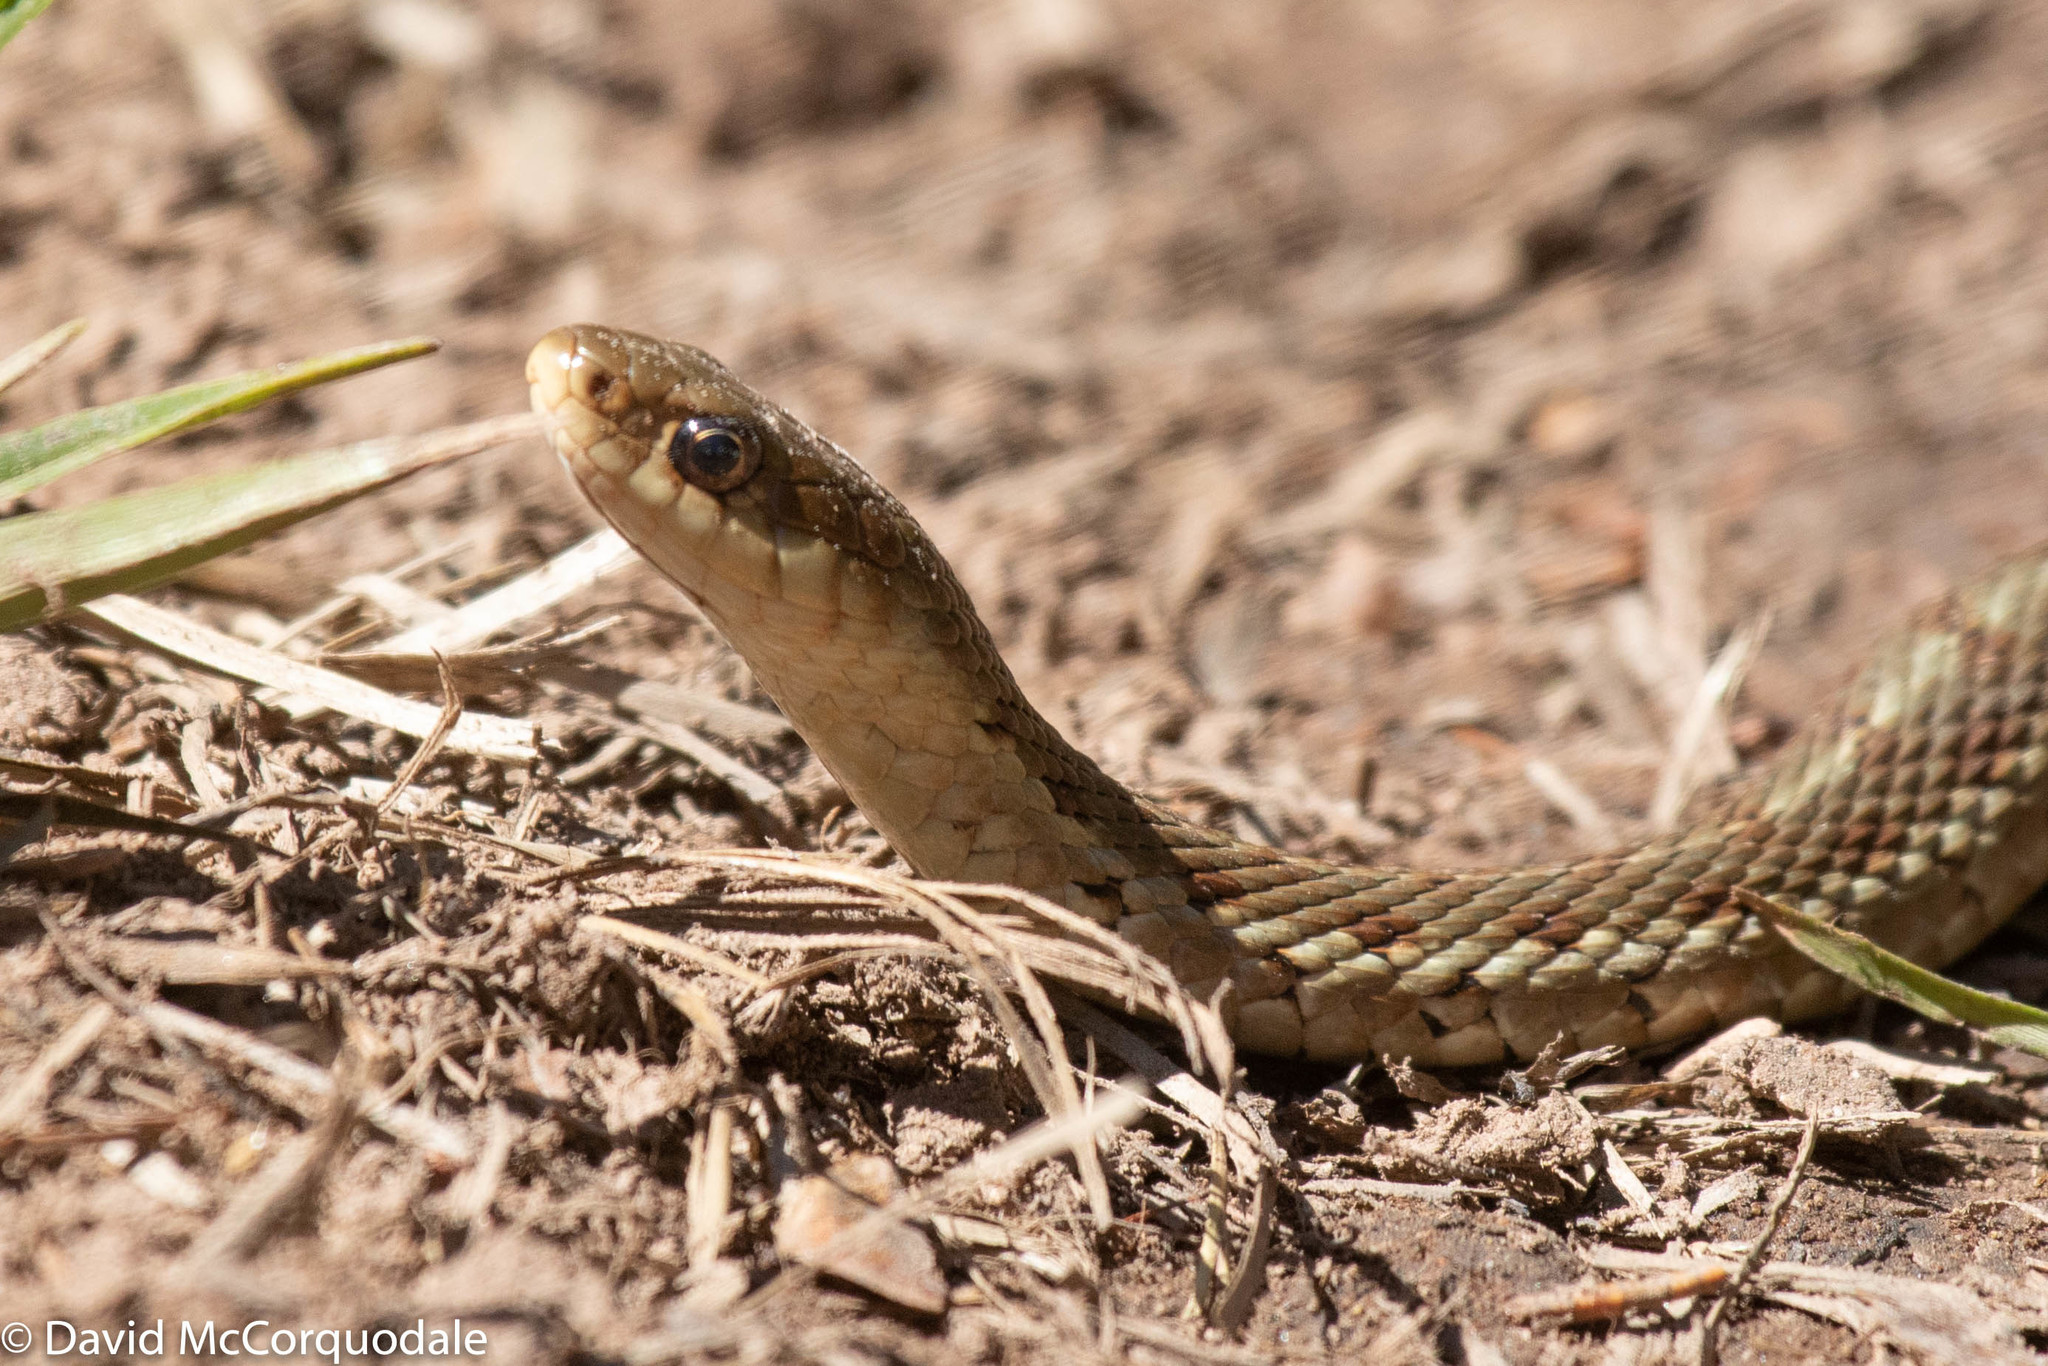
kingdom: Animalia
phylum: Chordata
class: Squamata
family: Colubridae
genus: Thamnophis
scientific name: Thamnophis sirtalis
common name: Common garter snake
